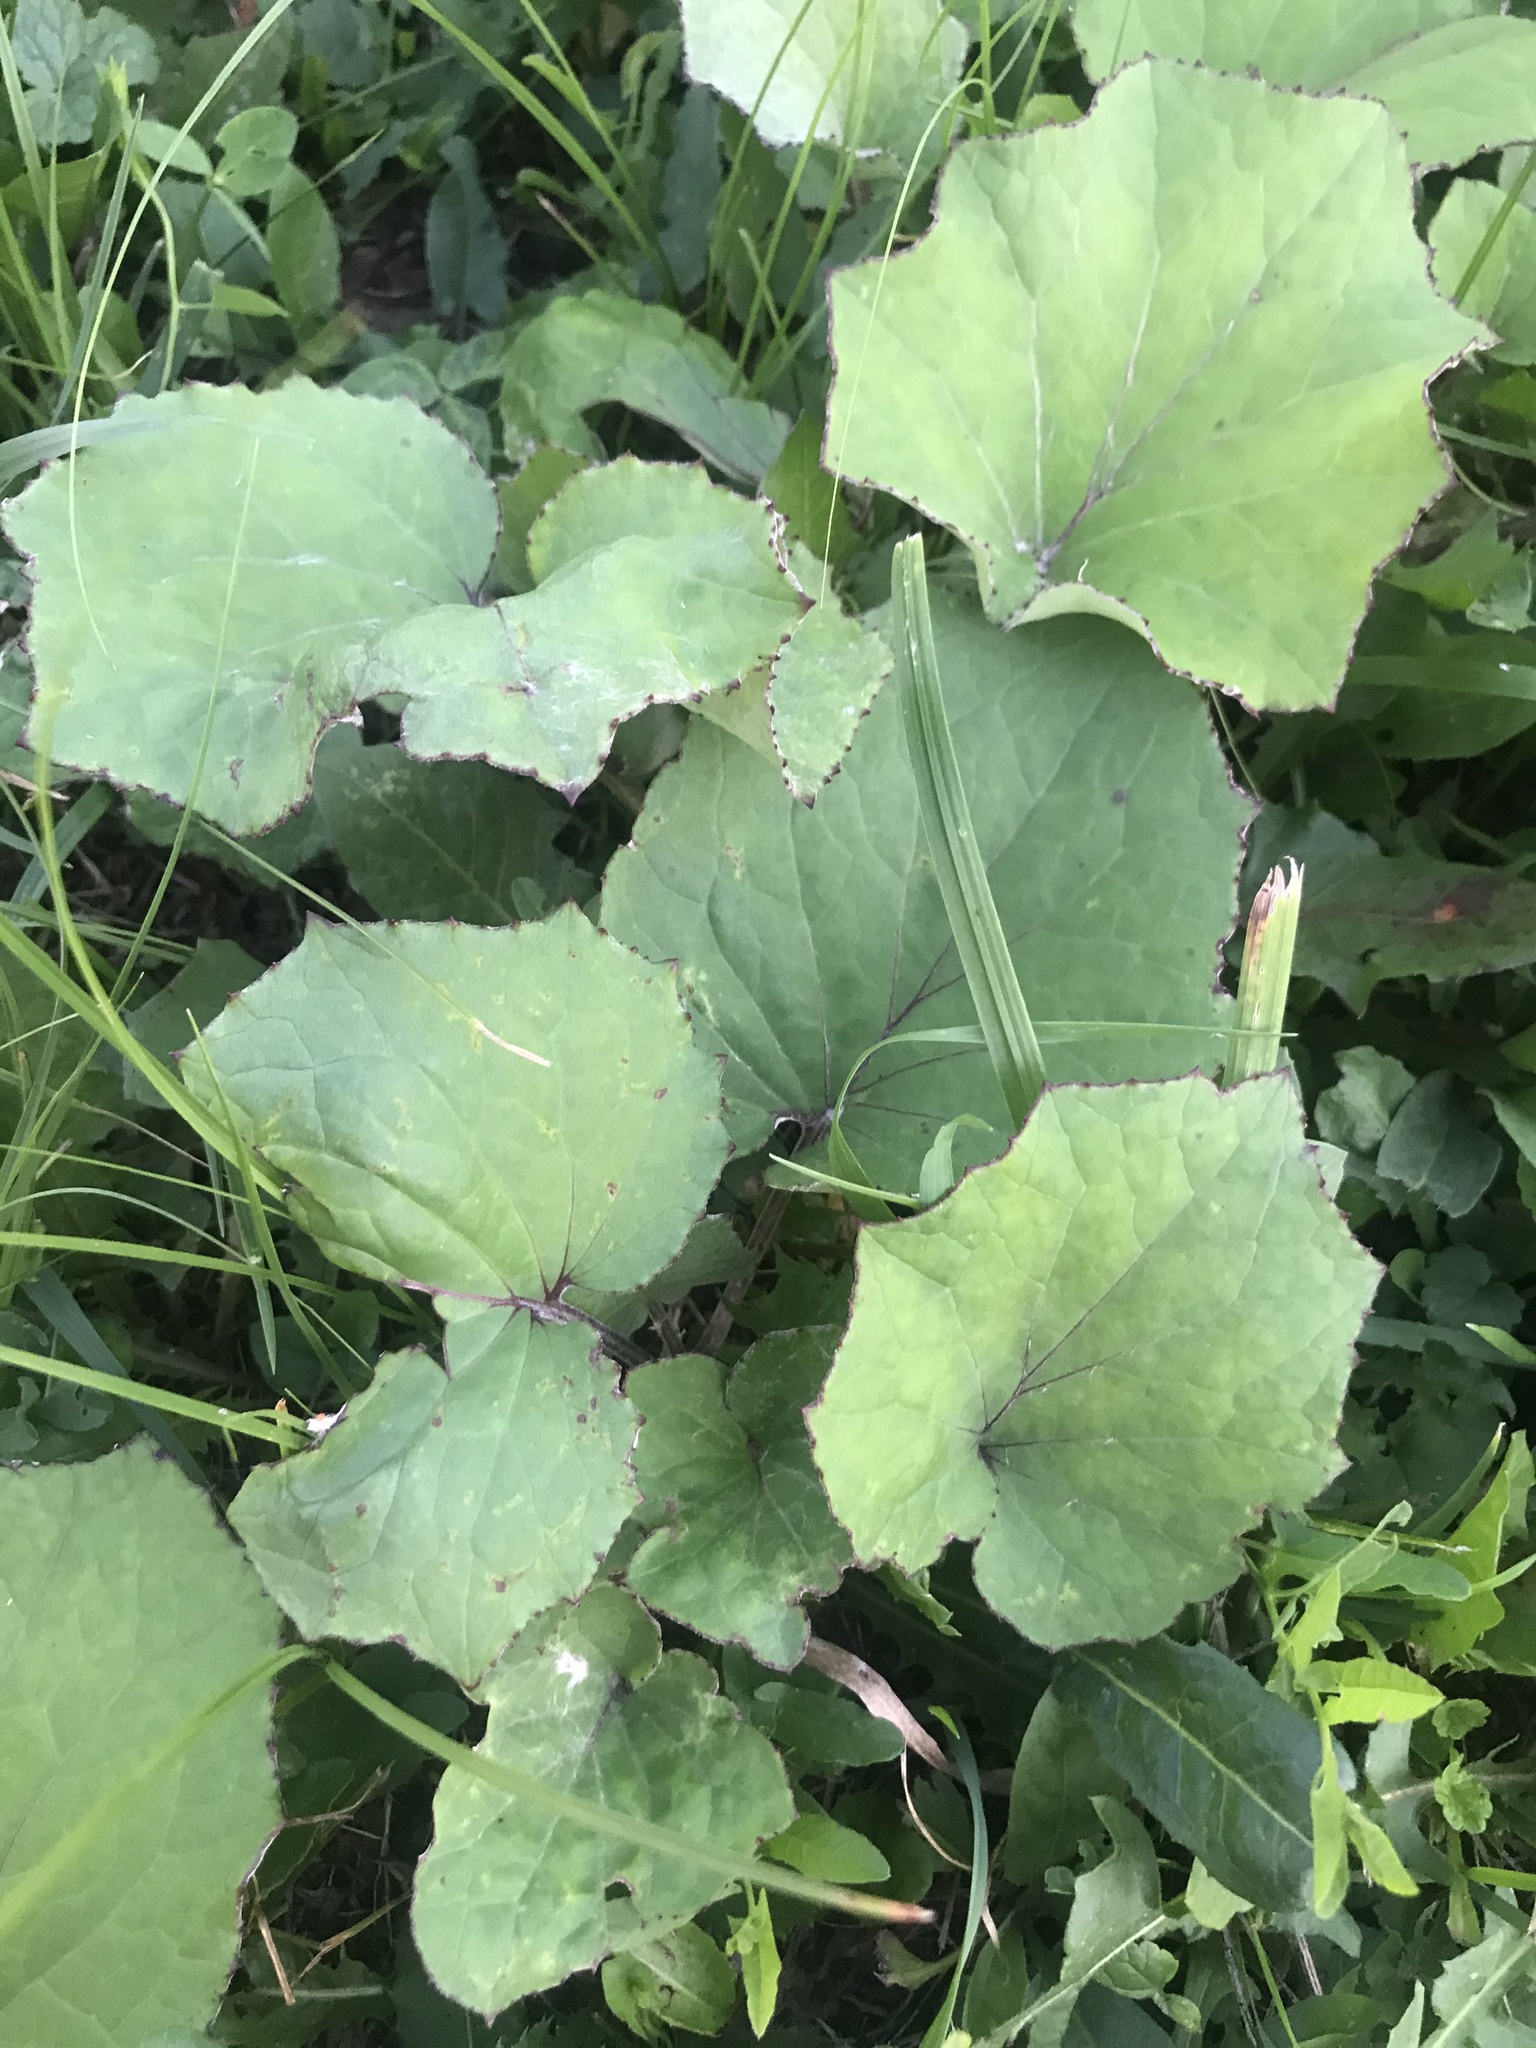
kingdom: Plantae
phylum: Tracheophyta
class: Magnoliopsida
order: Asterales
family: Asteraceae
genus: Tussilago
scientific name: Tussilago farfara
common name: Coltsfoot
